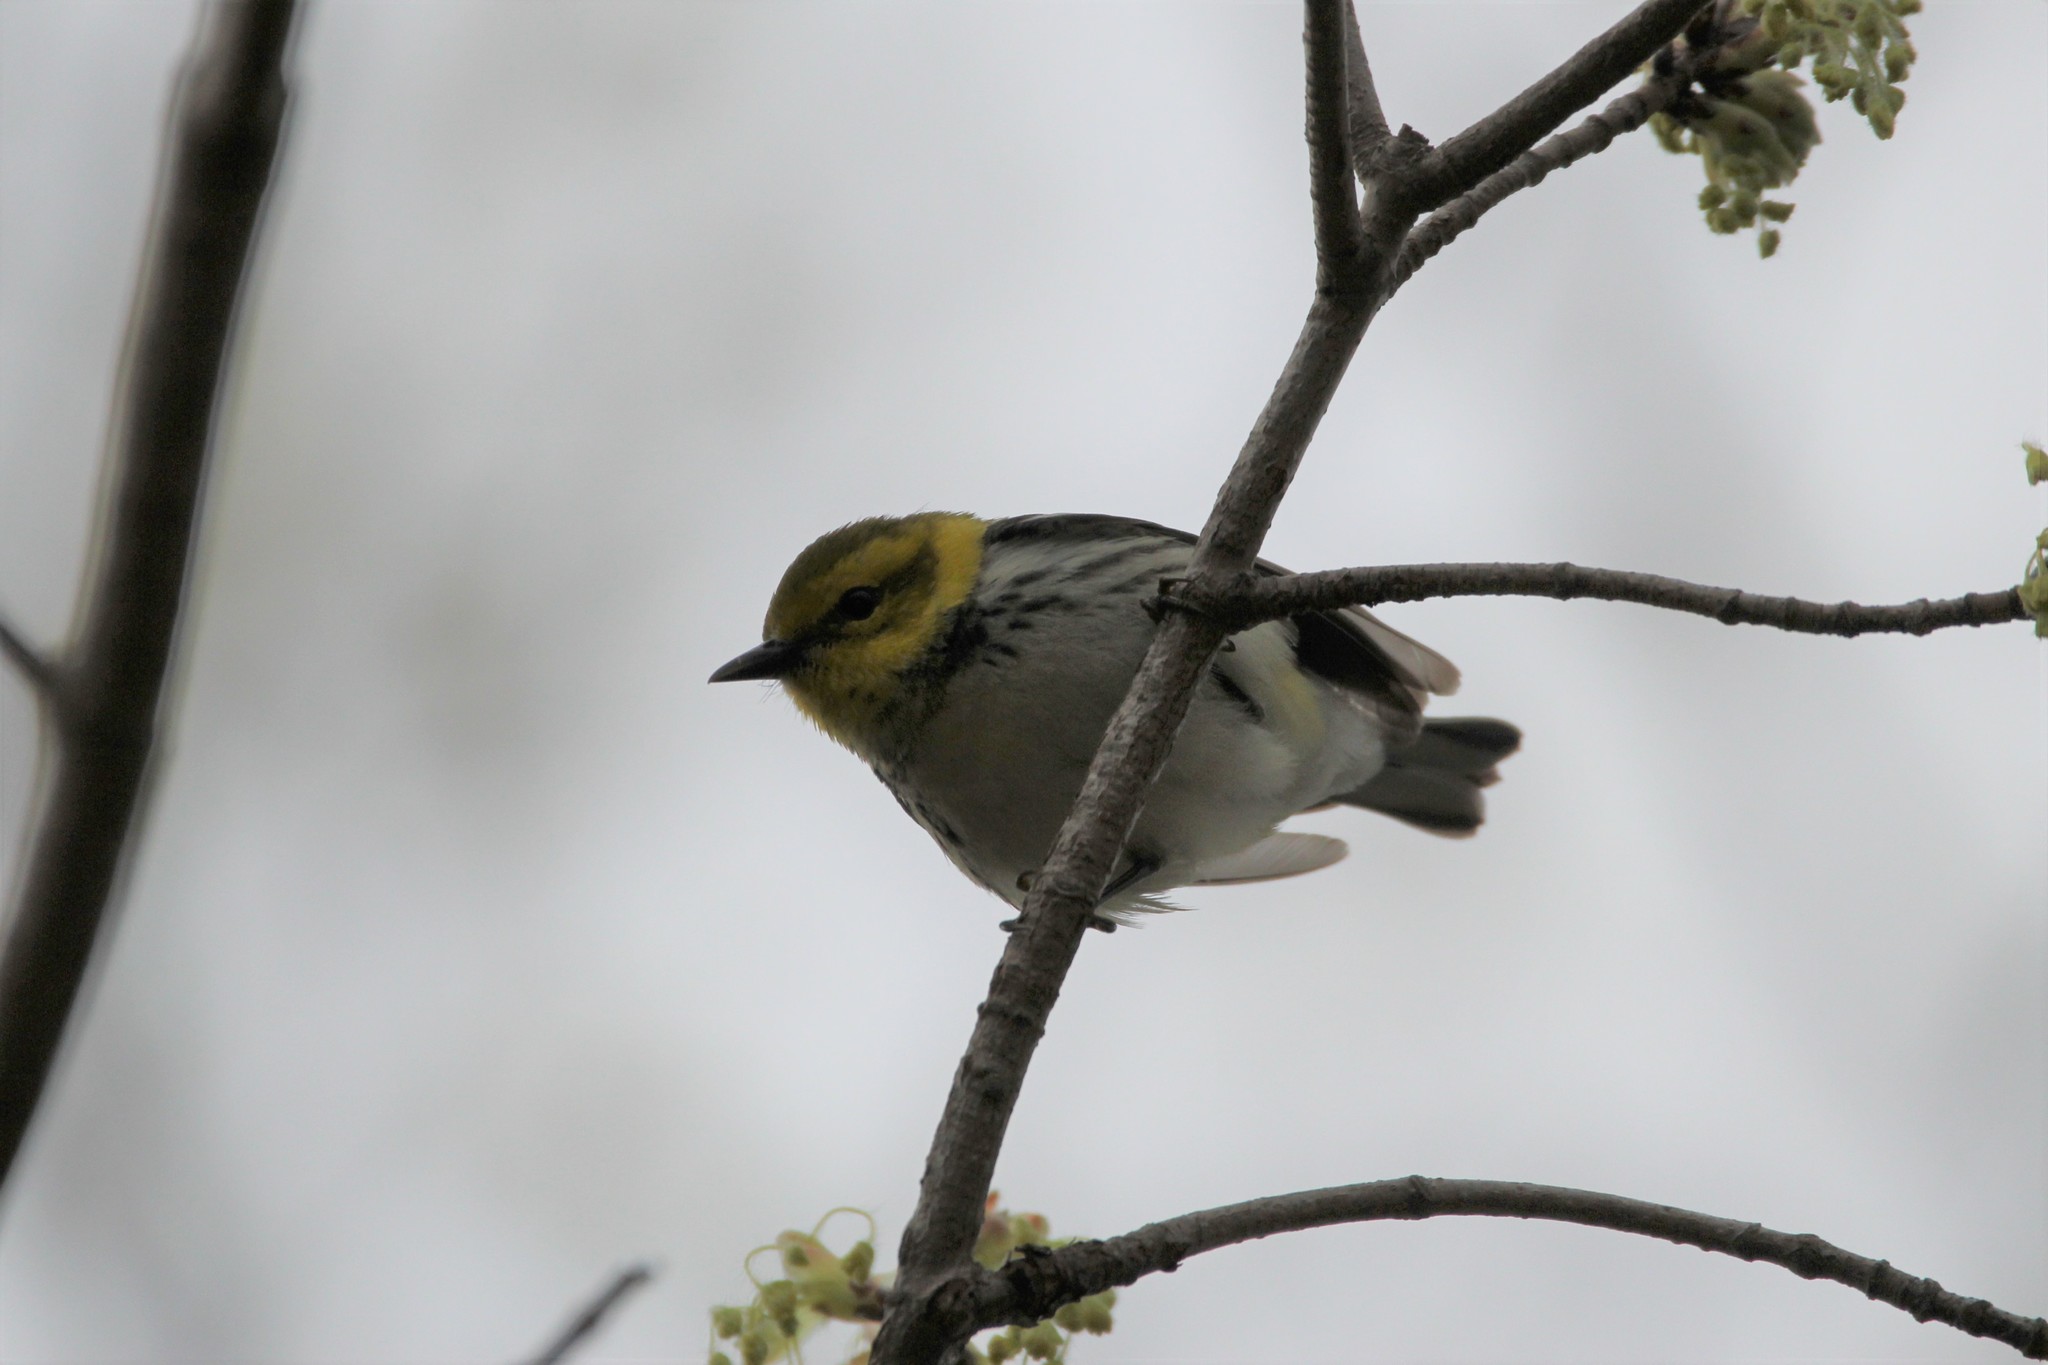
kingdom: Animalia
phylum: Chordata
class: Aves
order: Passeriformes
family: Parulidae
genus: Setophaga
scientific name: Setophaga virens
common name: Black-throated green warbler
